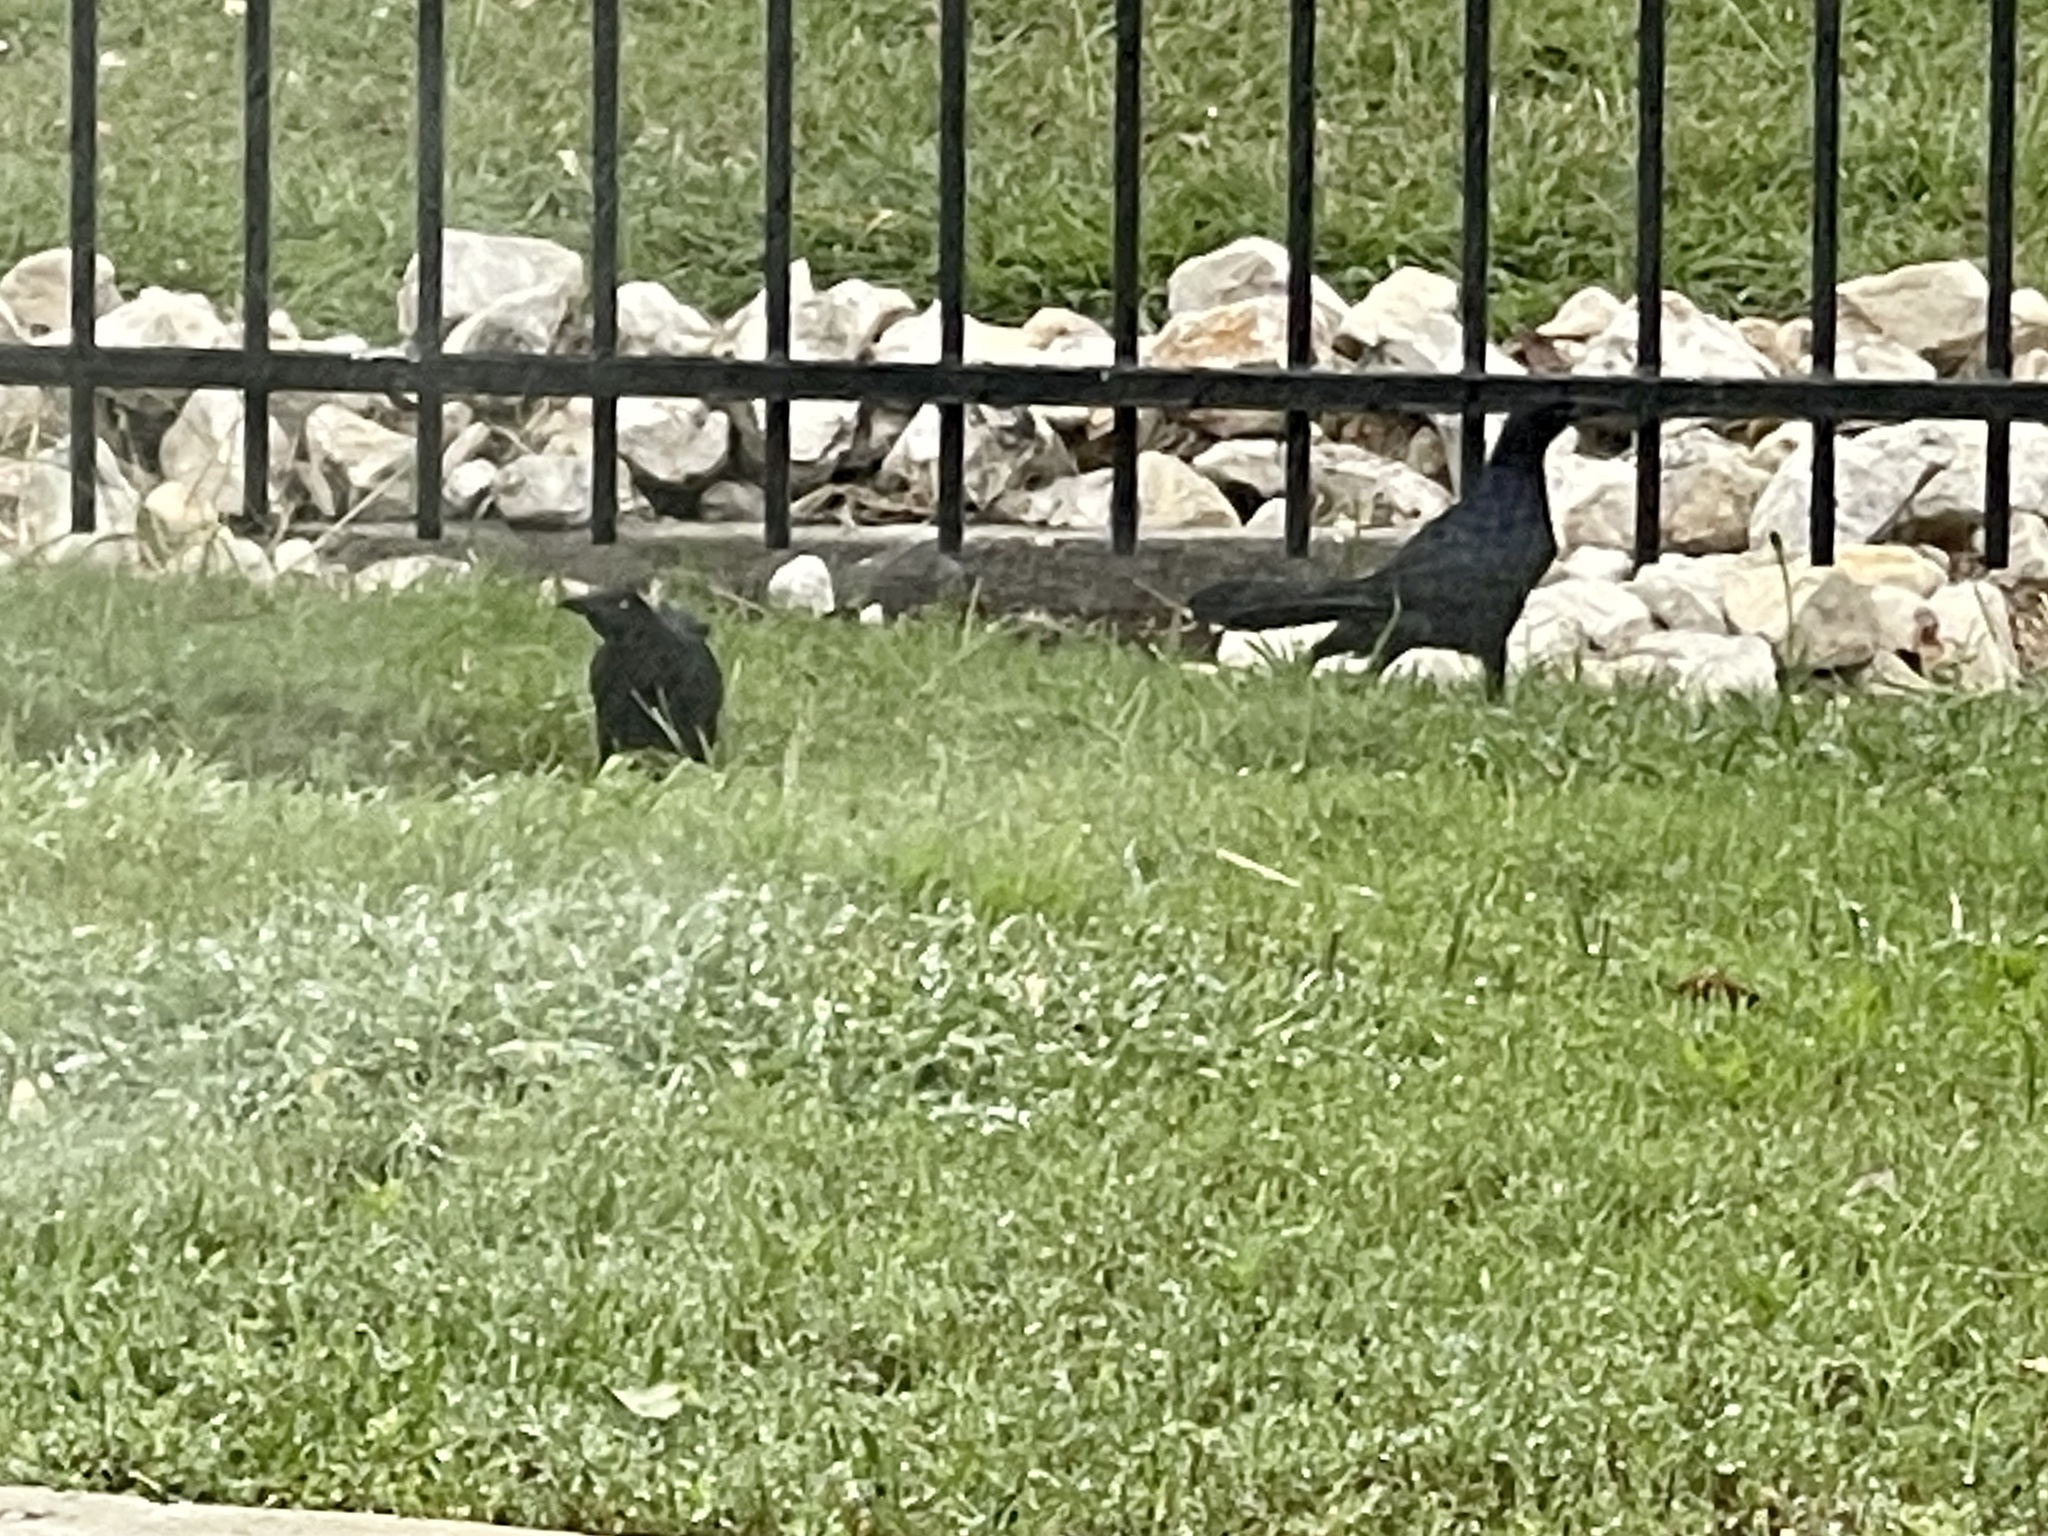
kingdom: Animalia
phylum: Chordata
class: Aves
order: Passeriformes
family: Icteridae
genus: Quiscalus
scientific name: Quiscalus mexicanus
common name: Great-tailed grackle
